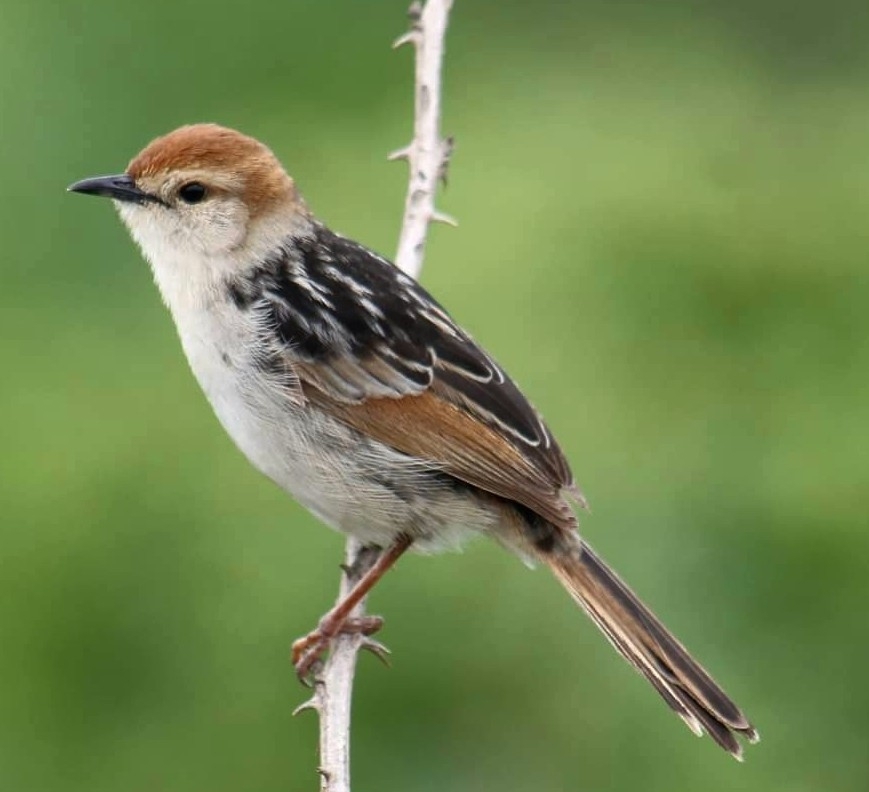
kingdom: Animalia
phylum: Chordata
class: Aves
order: Passeriformes
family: Cisticolidae
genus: Cisticola
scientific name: Cisticola tinniens
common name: Levaillant's cisticola
